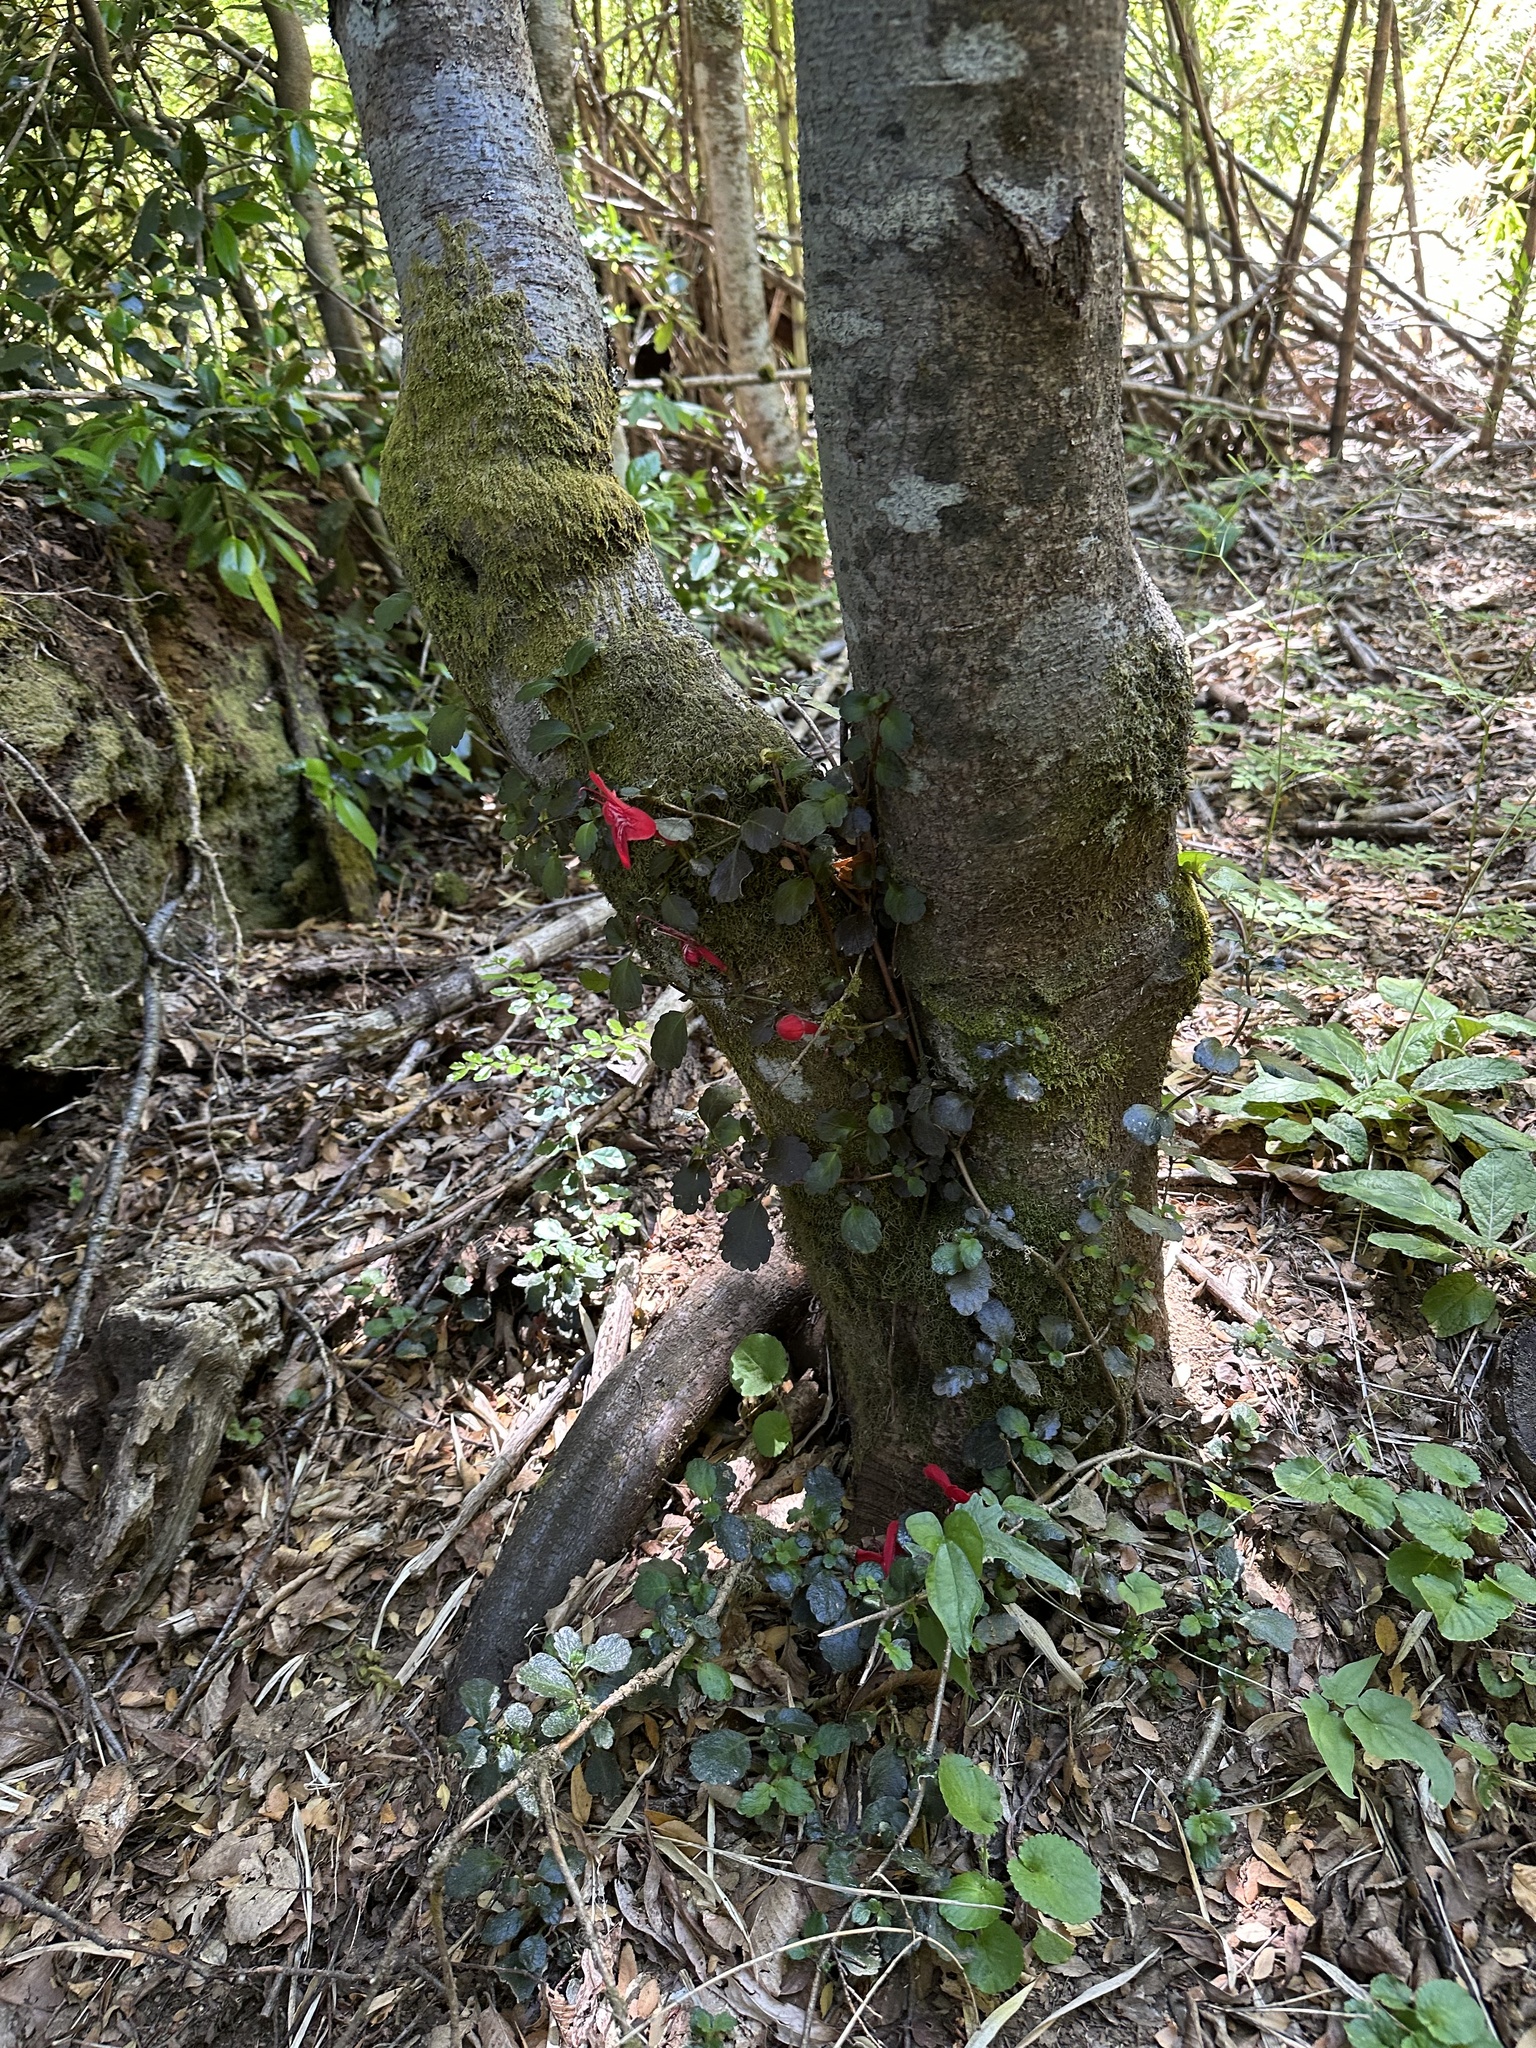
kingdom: Plantae
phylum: Tracheophyta
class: Magnoliopsida
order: Lamiales
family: Gesneriaceae
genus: Asteranthera
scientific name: Asteranthera ovata
